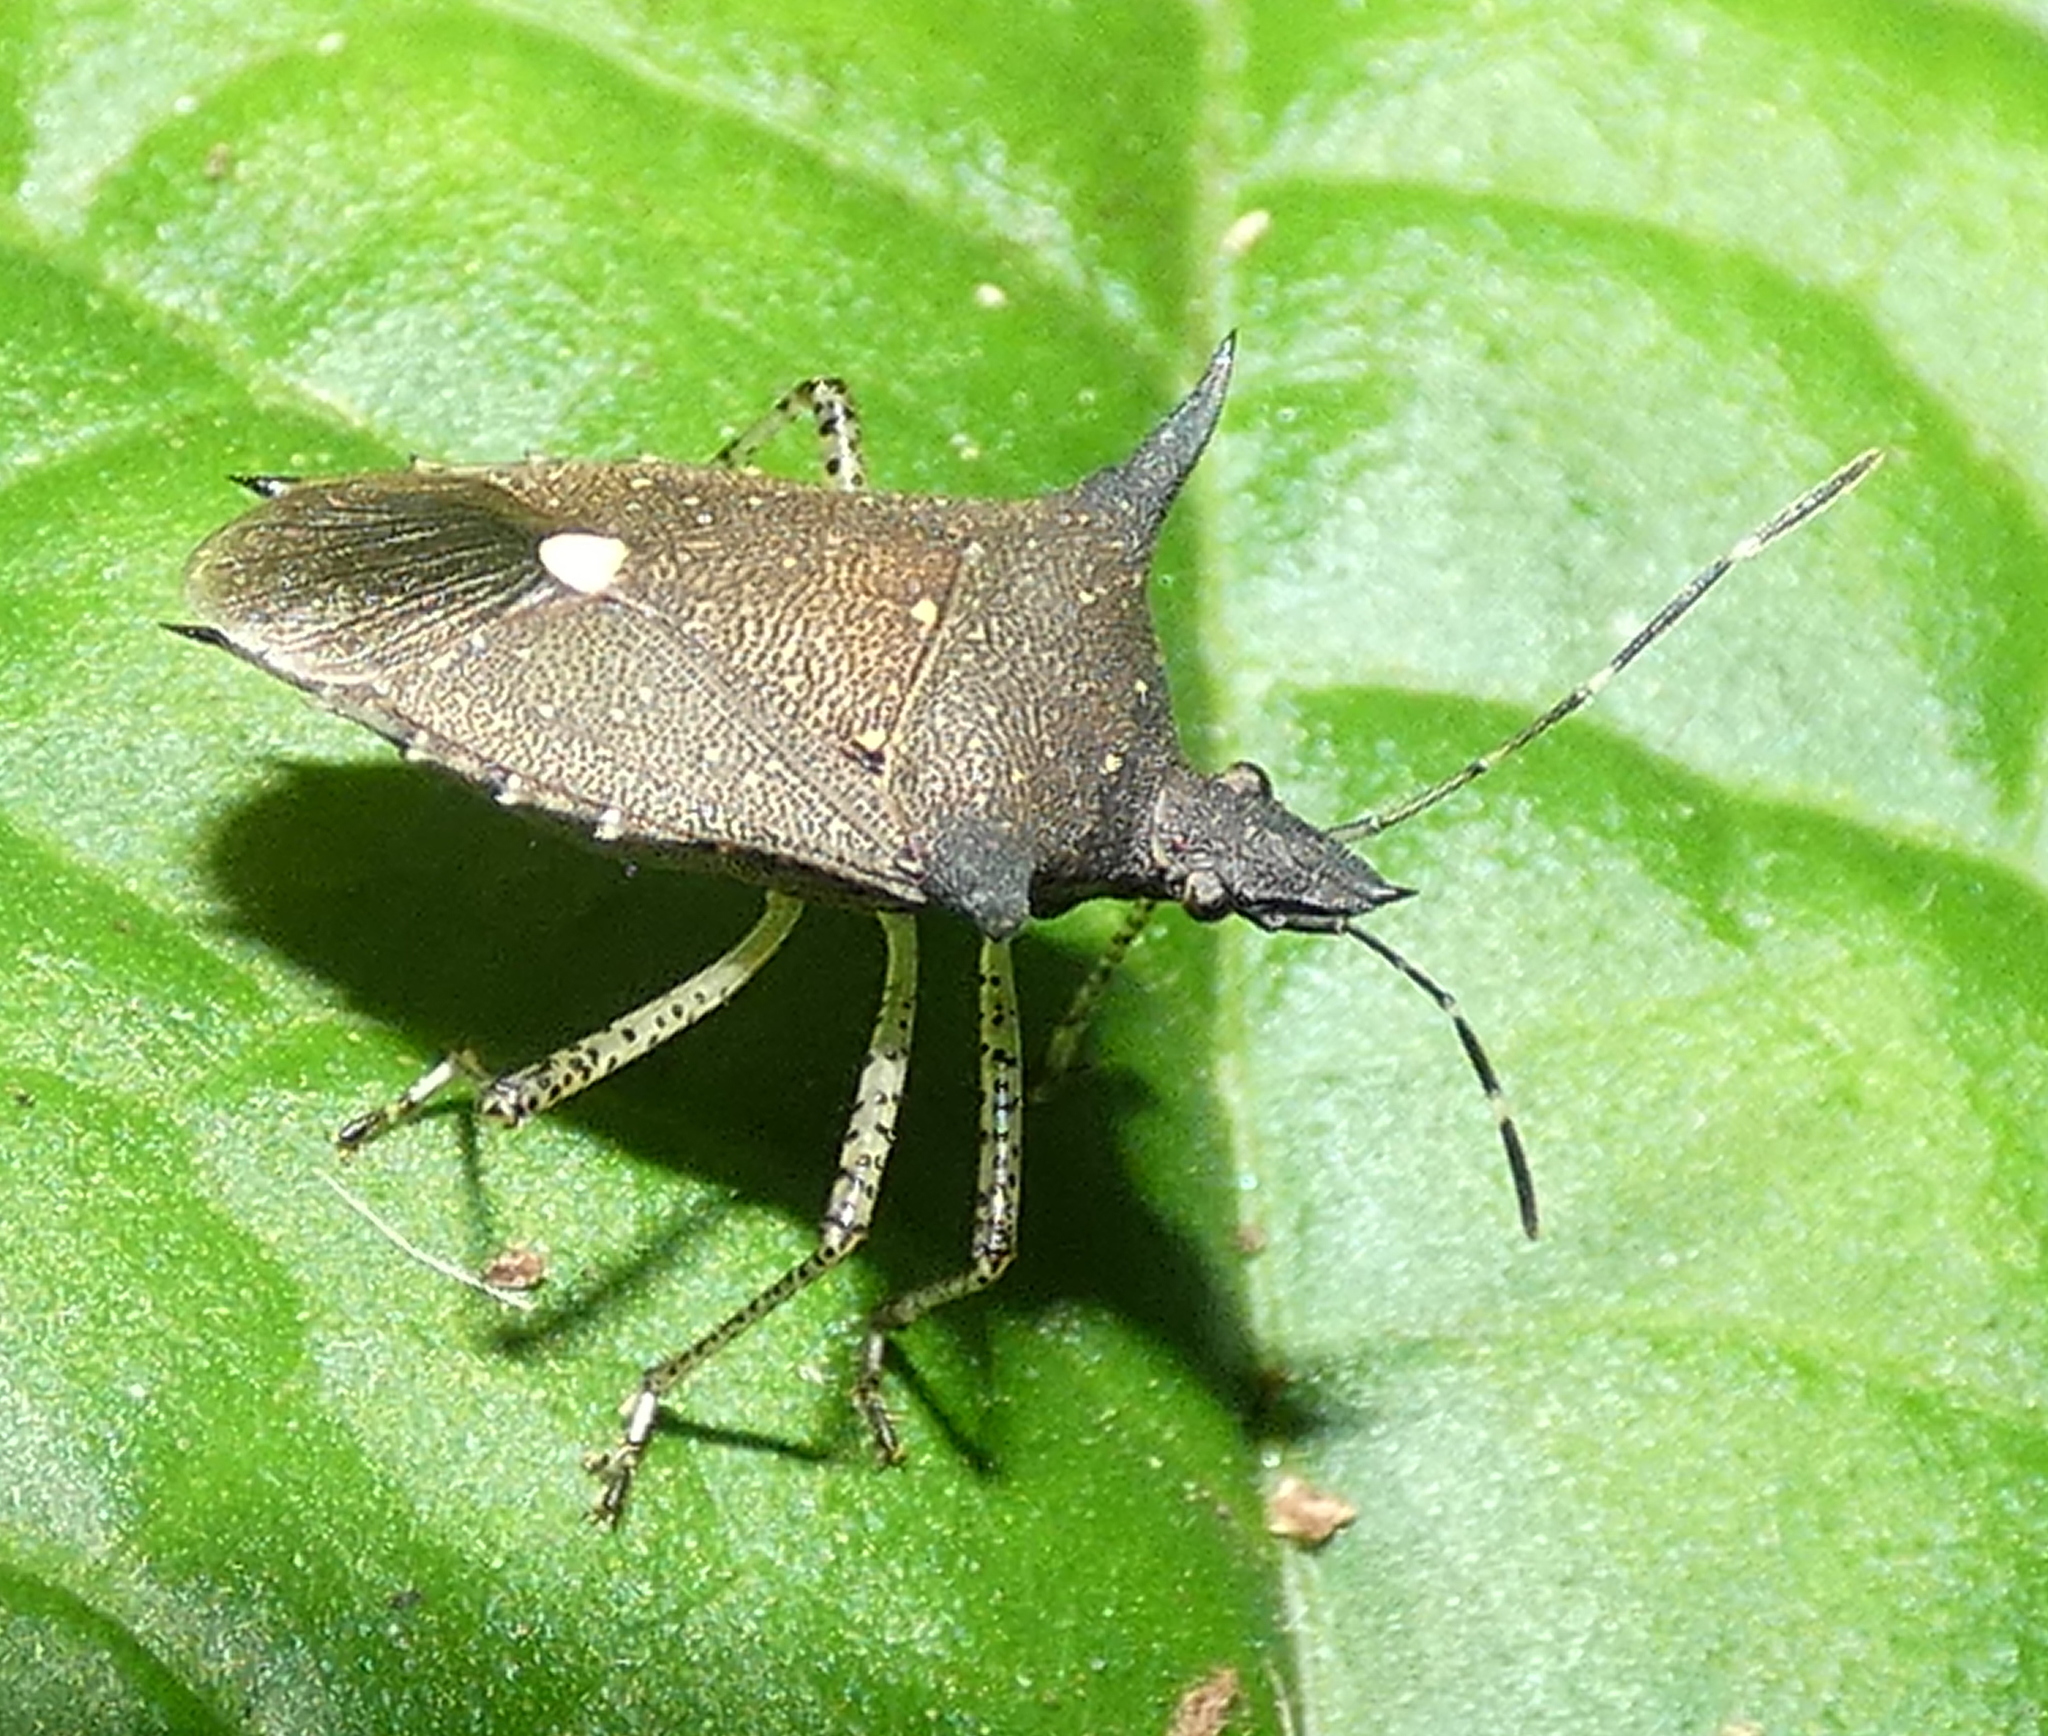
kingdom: Animalia
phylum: Arthropoda
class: Insecta
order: Hemiptera
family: Pentatomidae
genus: Proxys
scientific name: Proxys albopunctulatus
